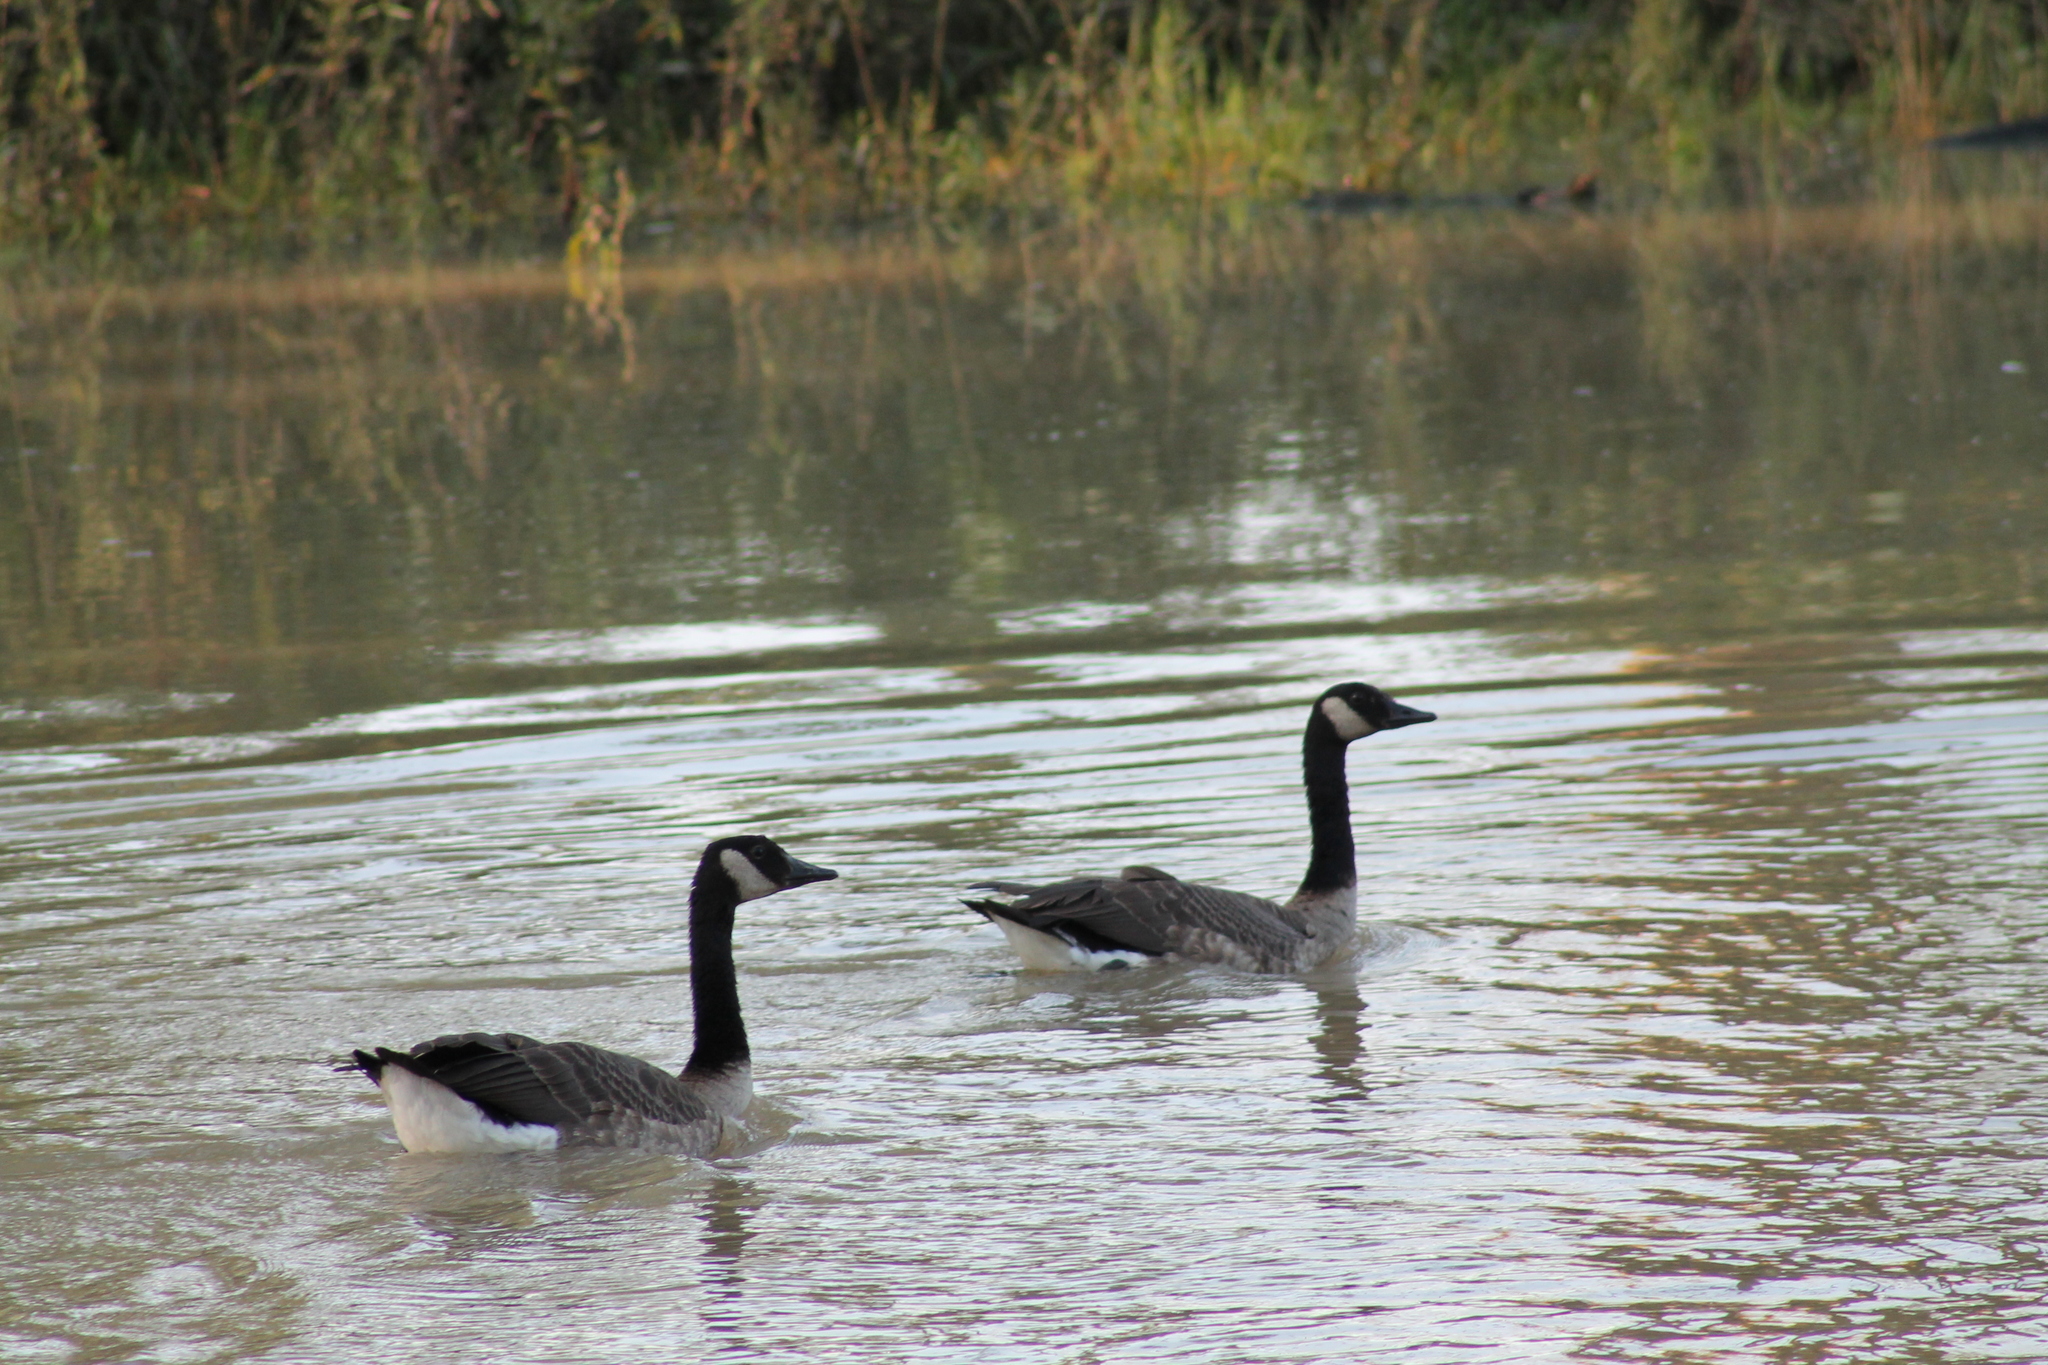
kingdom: Animalia
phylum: Chordata
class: Aves
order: Anseriformes
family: Anatidae
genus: Branta
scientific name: Branta canadensis
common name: Canada goose
